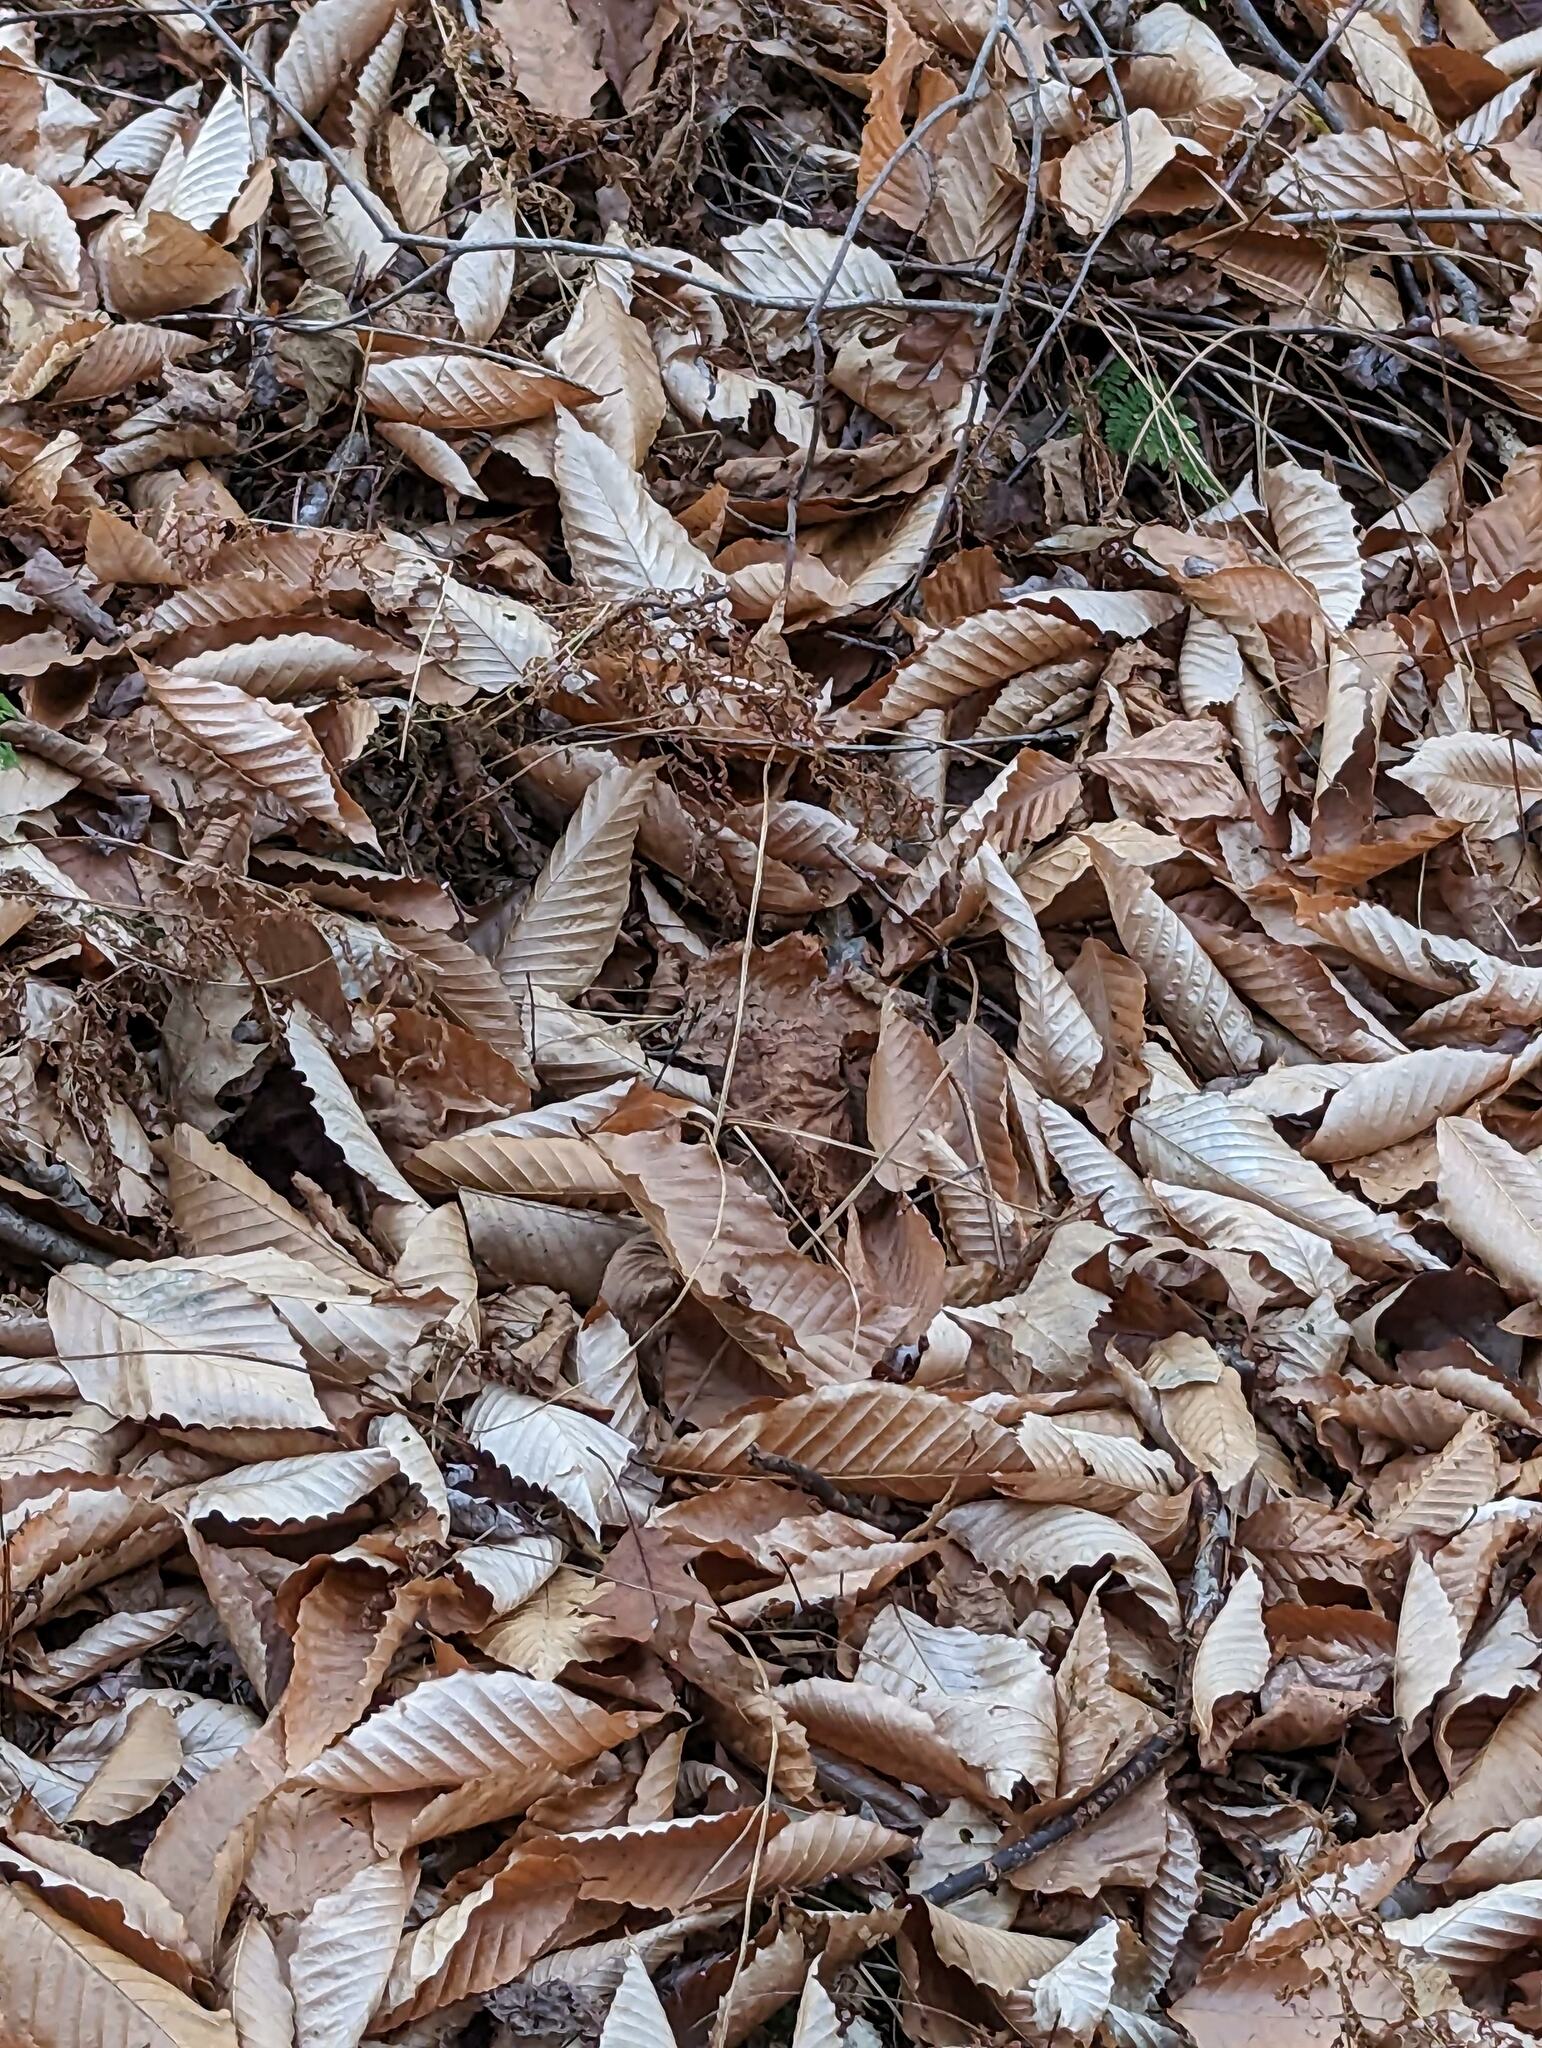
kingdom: Plantae
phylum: Tracheophyta
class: Magnoliopsida
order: Fagales
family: Fagaceae
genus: Fagus
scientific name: Fagus grandifolia
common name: American beech
